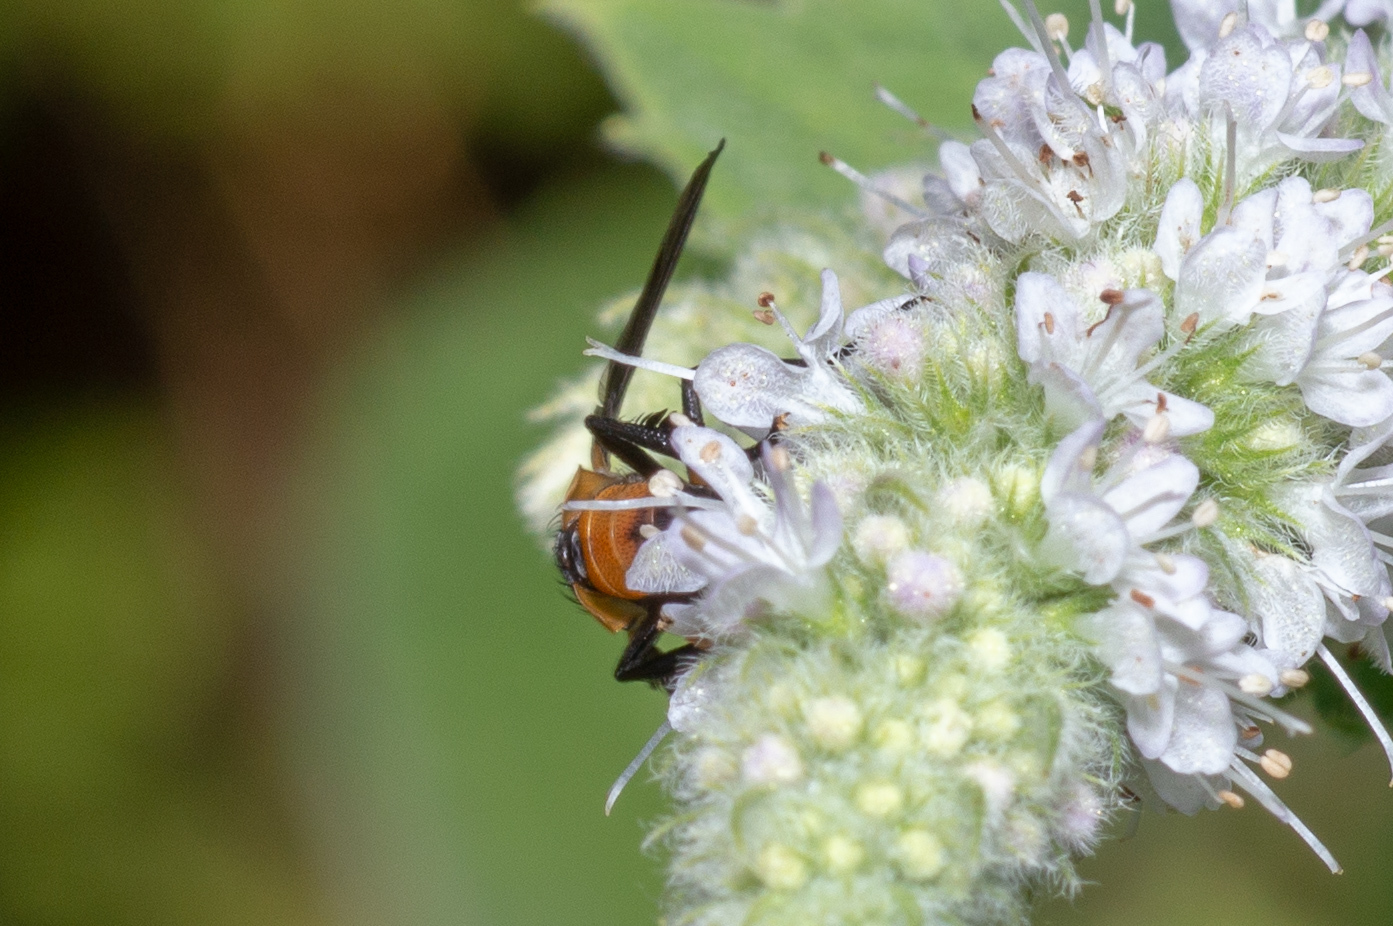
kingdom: Animalia
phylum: Arthropoda
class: Insecta
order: Diptera
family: Tachinidae
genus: Trichopoda
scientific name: Trichopoda pennipes
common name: Tachinid fly
